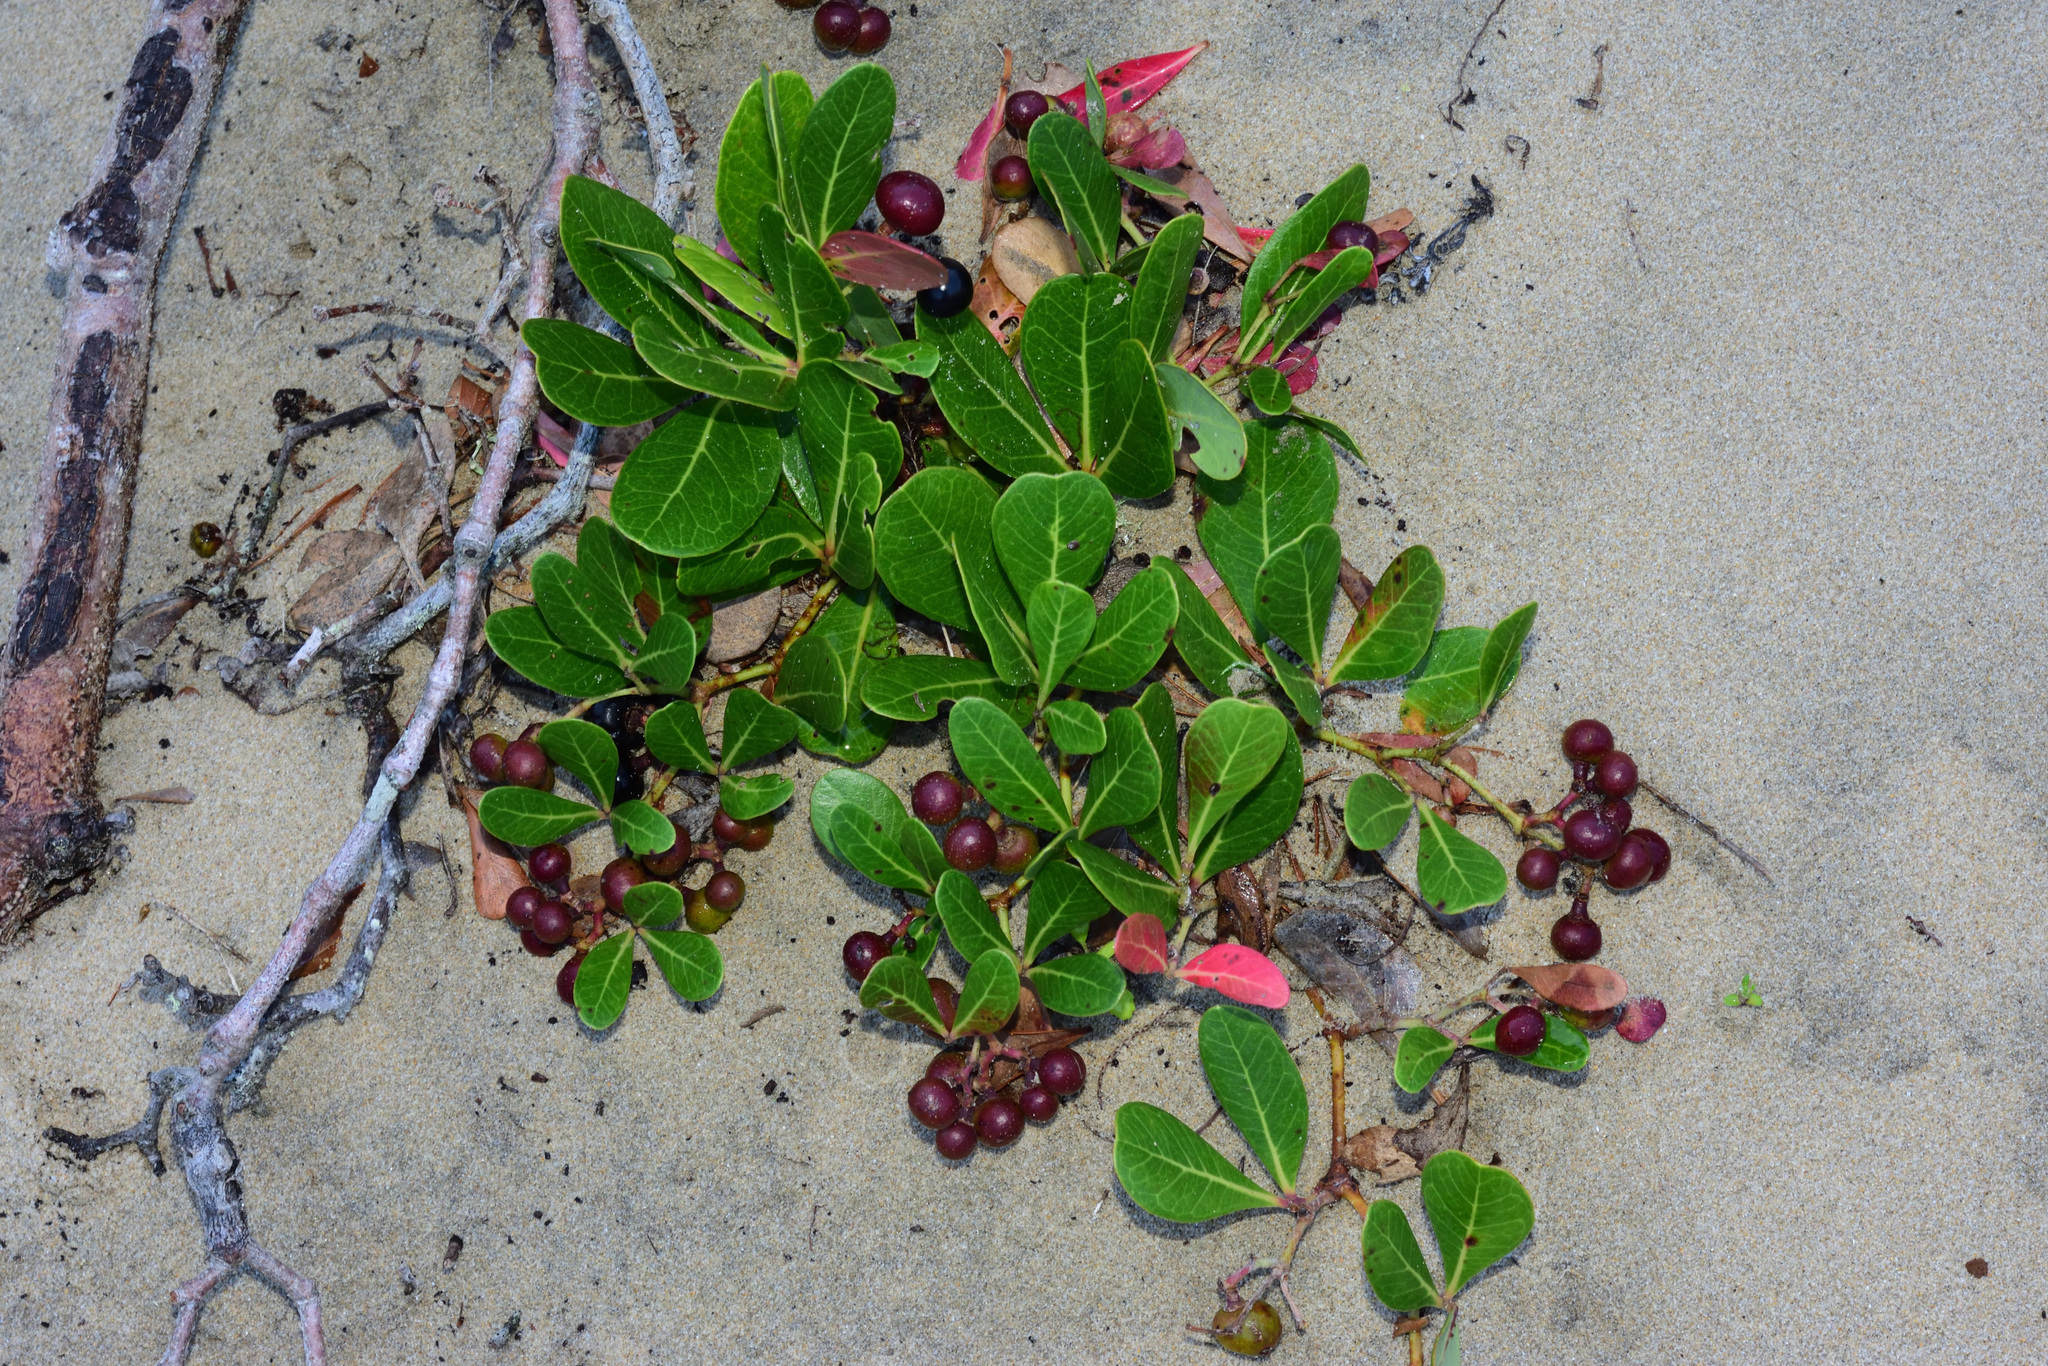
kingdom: Plantae
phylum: Tracheophyta
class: Magnoliopsida
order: Vitales
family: Vitaceae
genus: Rhoicissus
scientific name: Rhoicissus digitata
